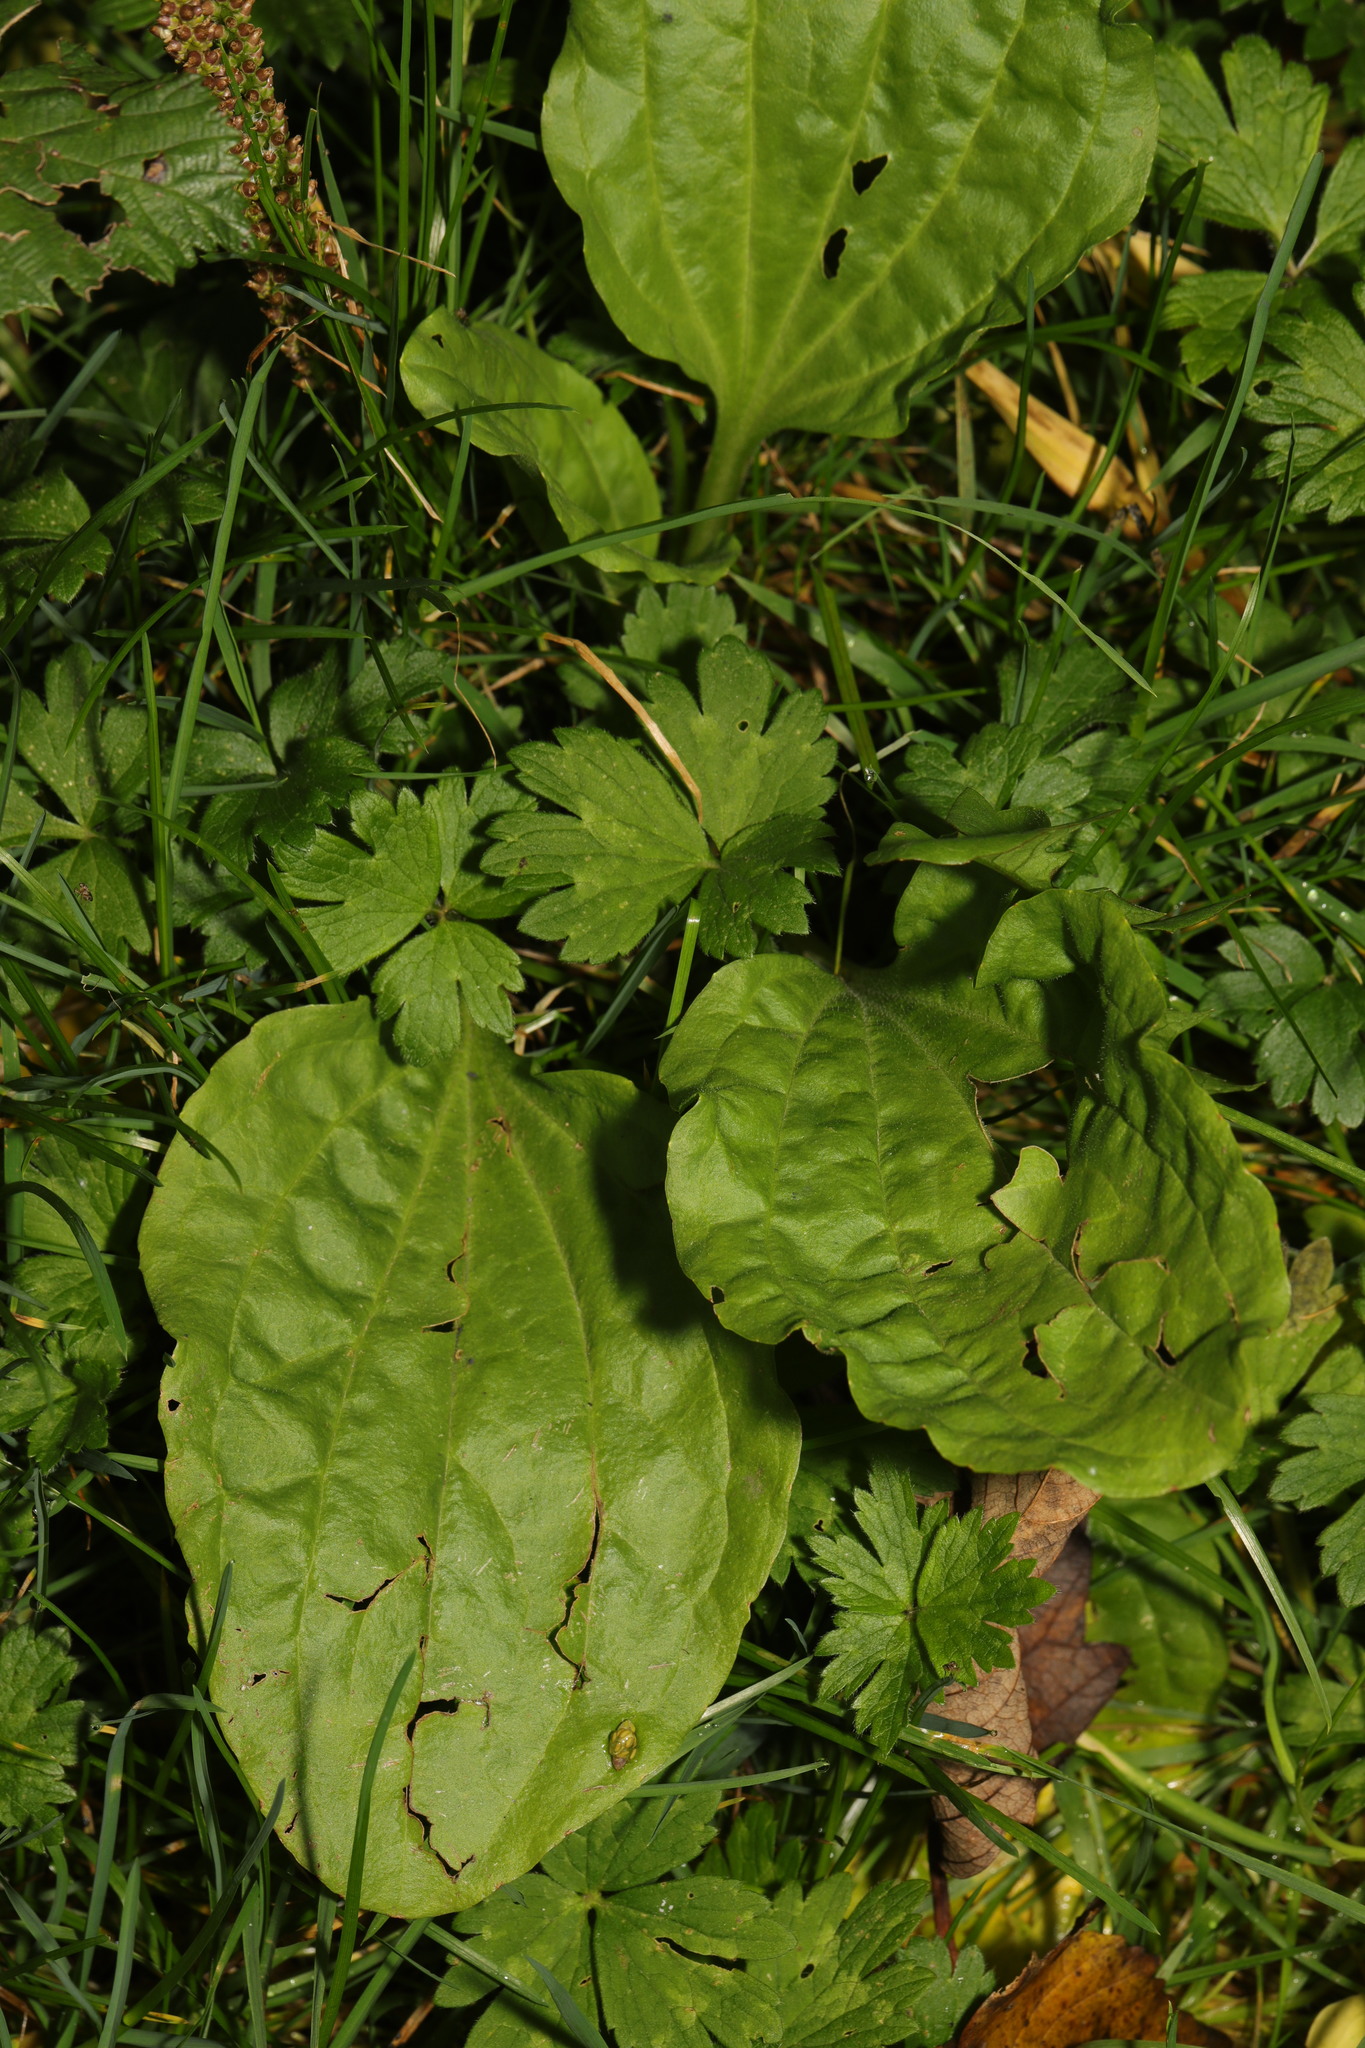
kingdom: Plantae
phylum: Tracheophyta
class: Magnoliopsida
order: Lamiales
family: Plantaginaceae
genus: Plantago
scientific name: Plantago major
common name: Common plantain
